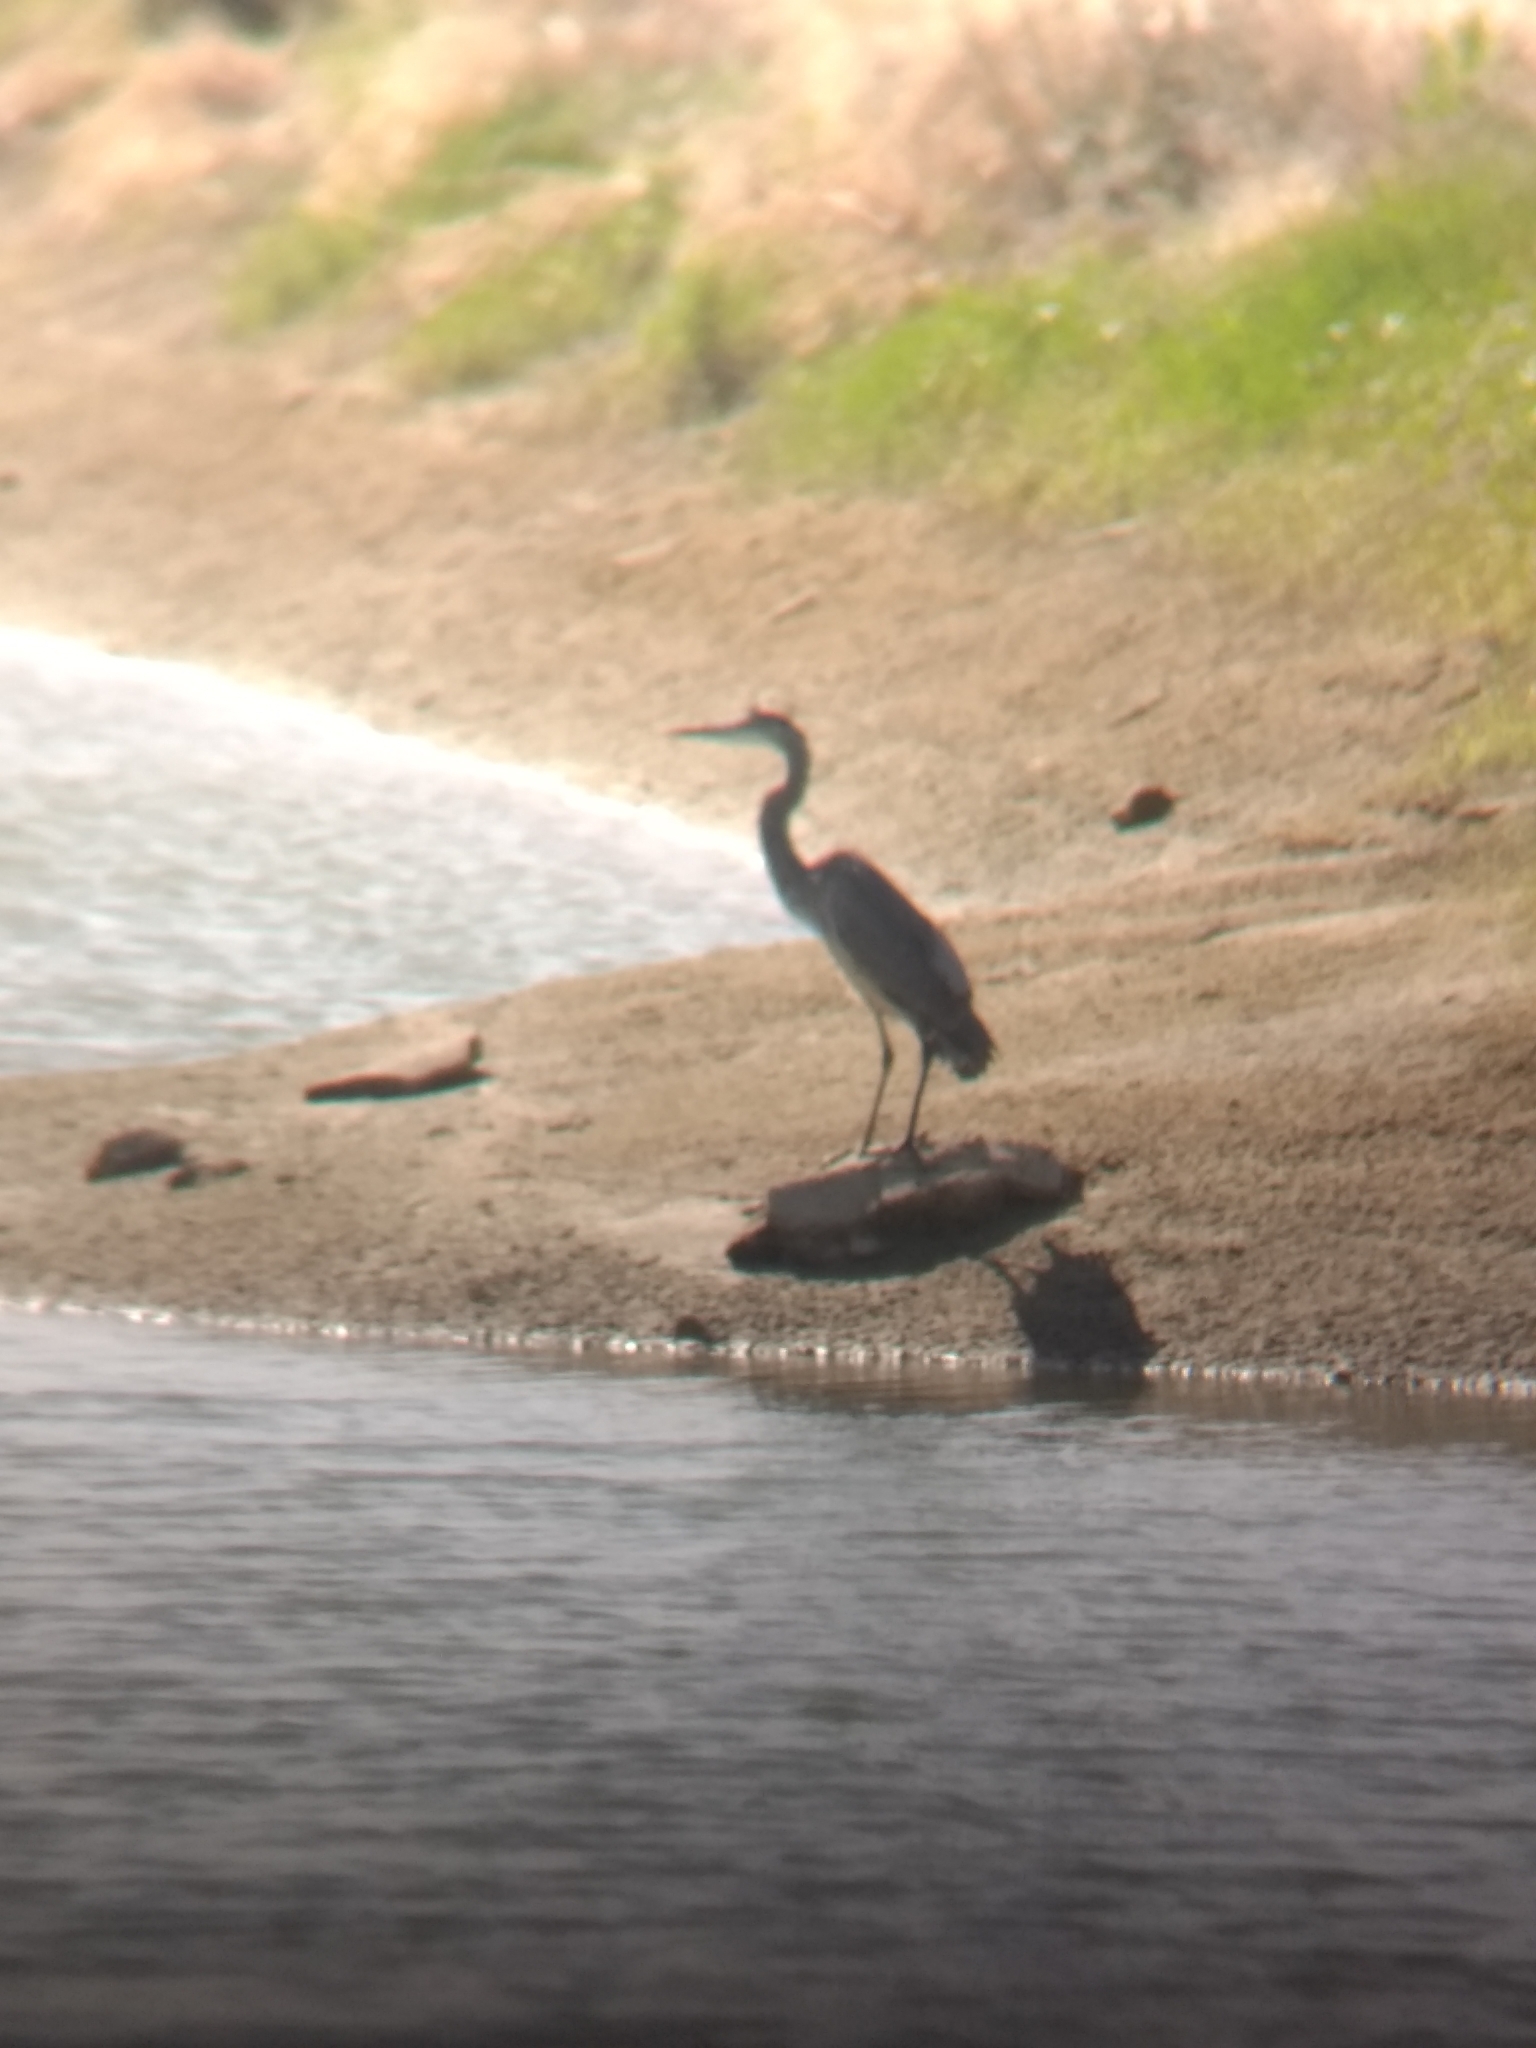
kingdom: Animalia
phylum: Chordata
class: Aves
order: Pelecaniformes
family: Ardeidae
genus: Ardea
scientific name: Ardea herodias
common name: Great blue heron
